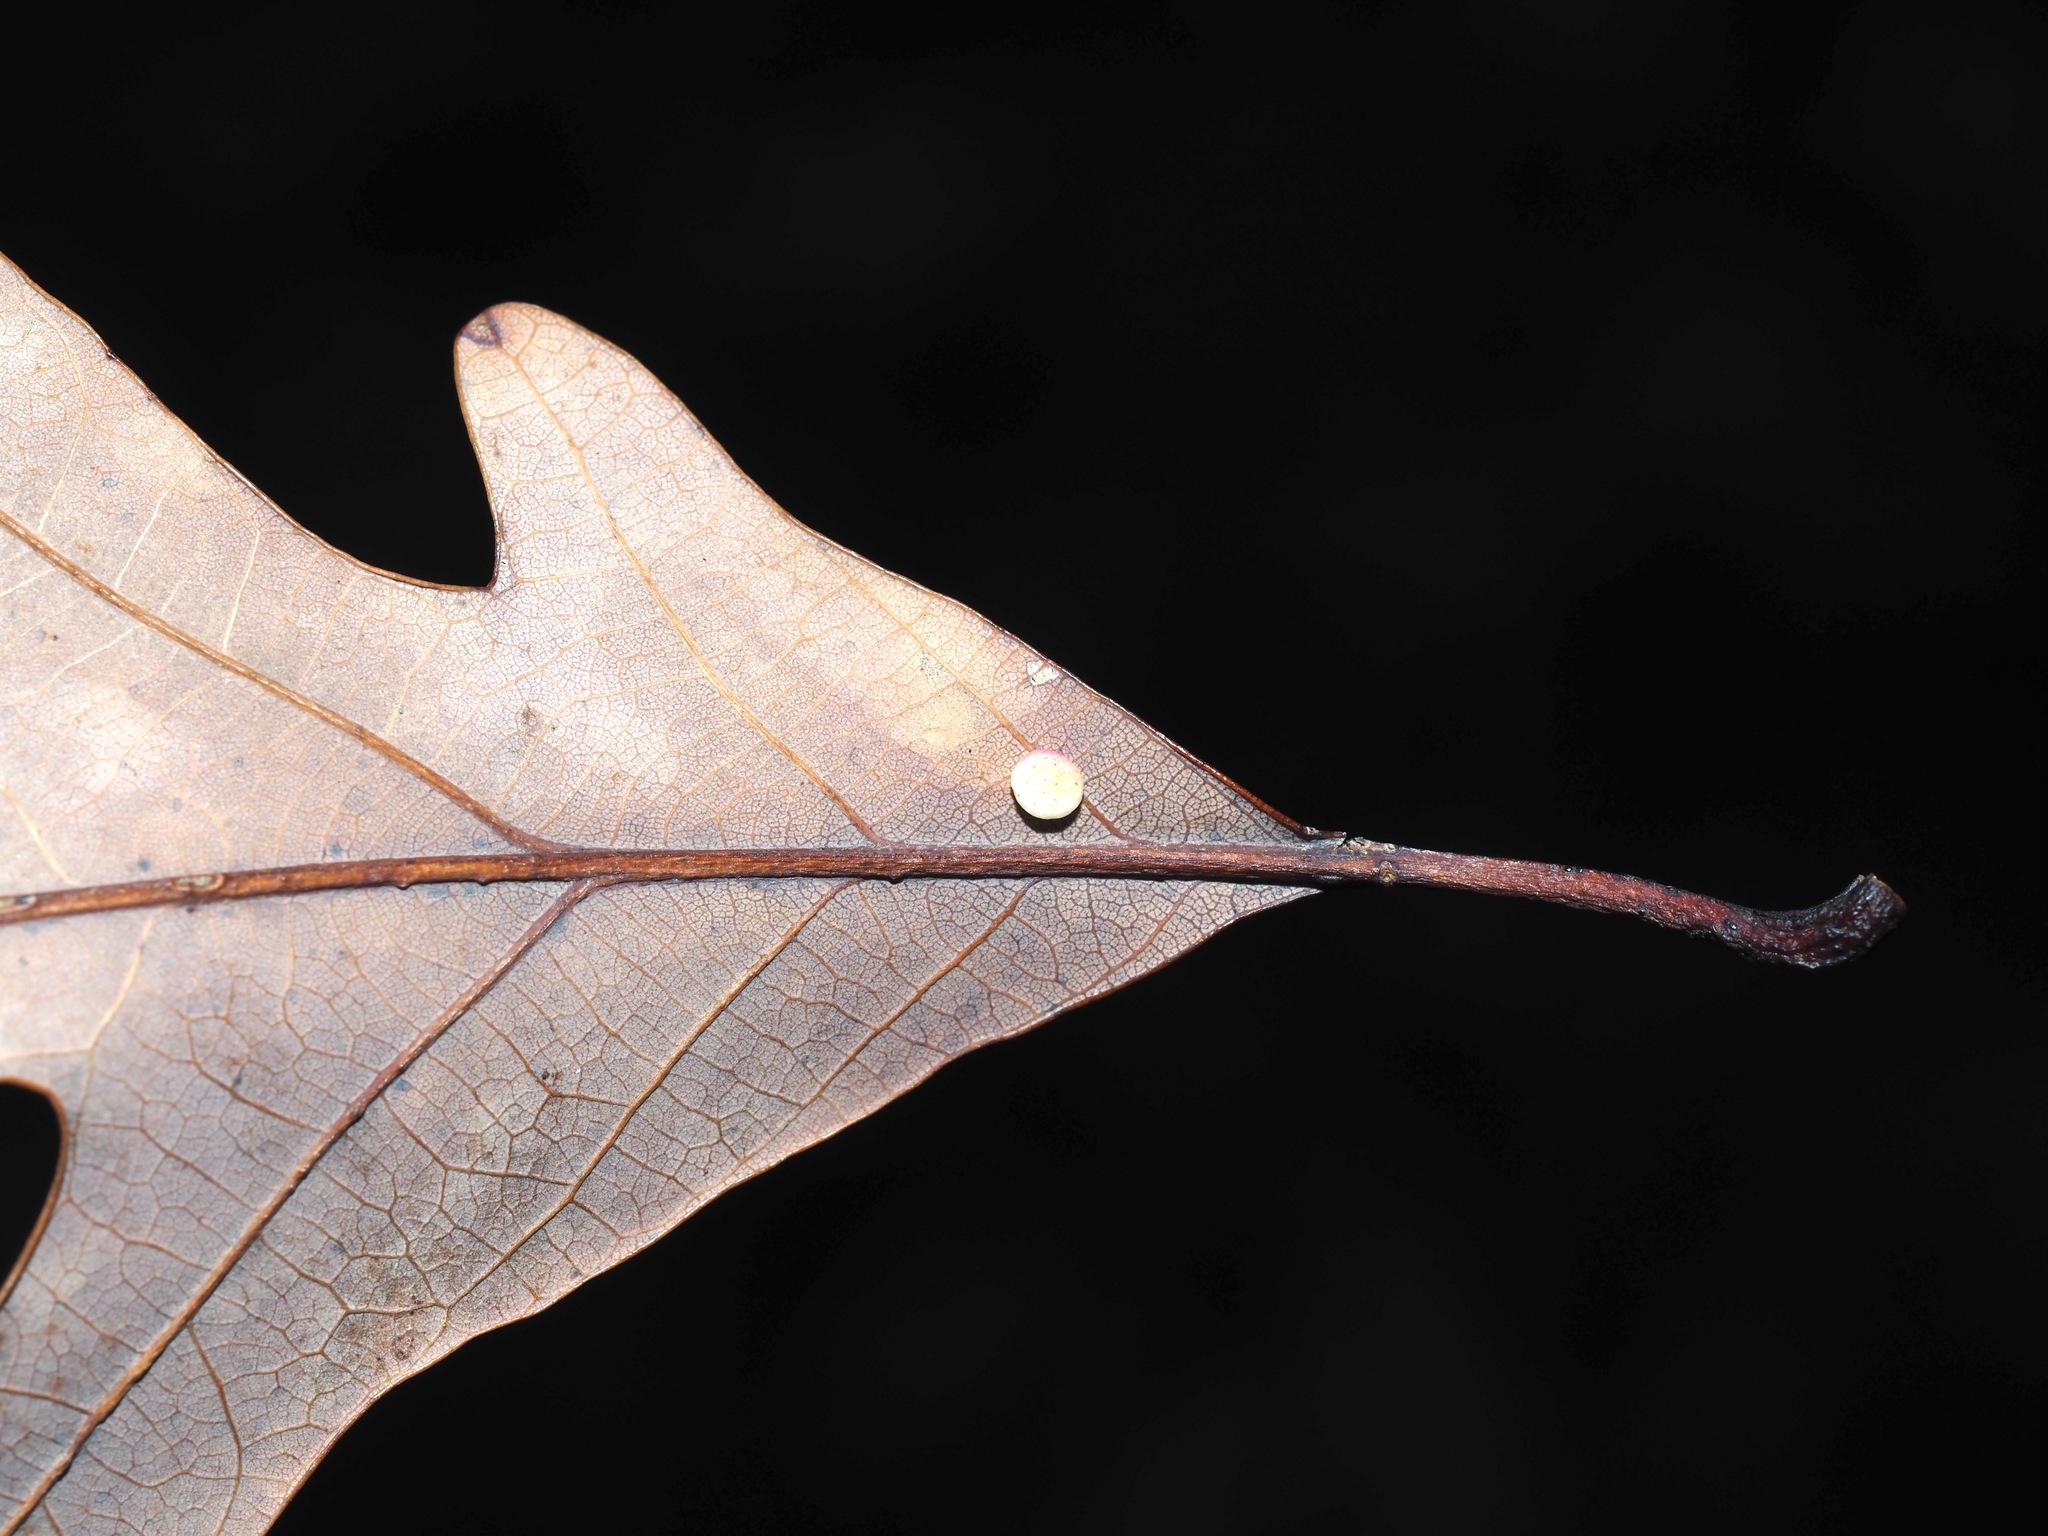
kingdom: Animalia
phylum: Arthropoda
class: Insecta
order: Hymenoptera
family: Cynipidae
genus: Phylloteras
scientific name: Phylloteras
